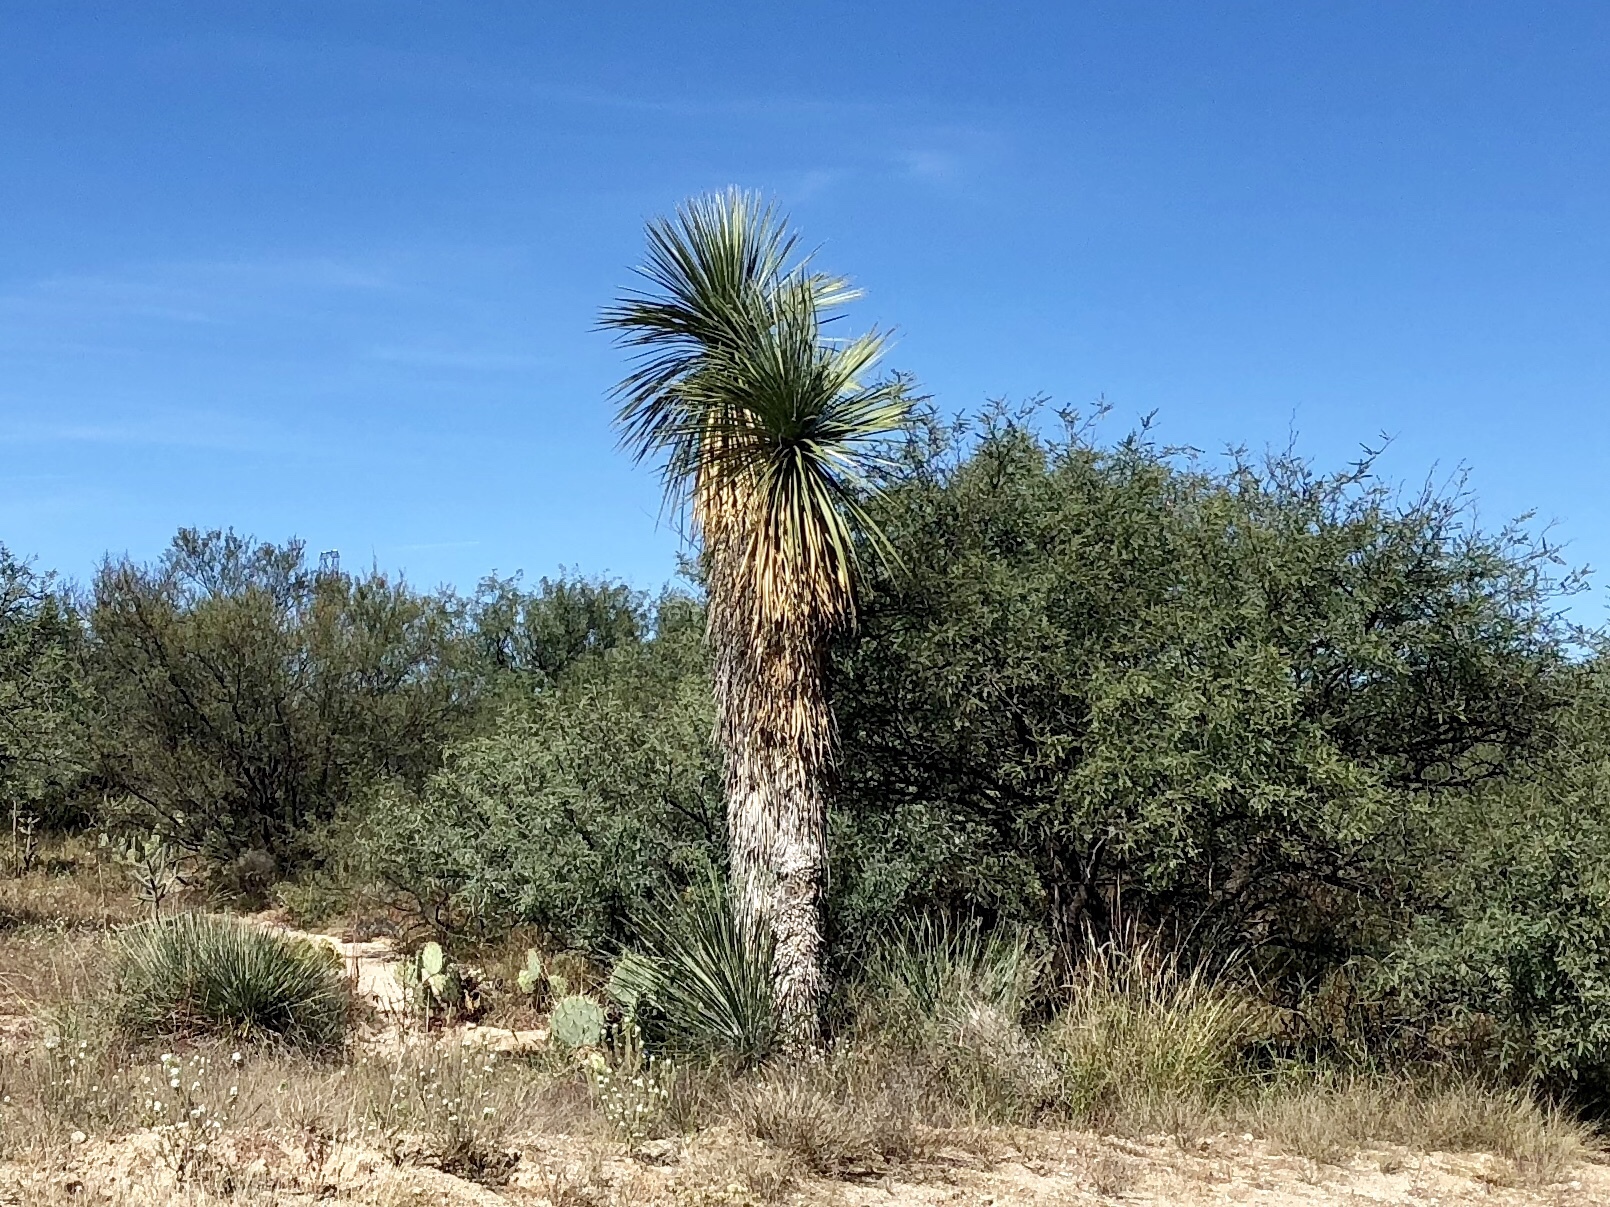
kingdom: Plantae
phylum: Tracheophyta
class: Liliopsida
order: Asparagales
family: Asparagaceae
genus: Yucca
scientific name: Yucca elata
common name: Palmella
